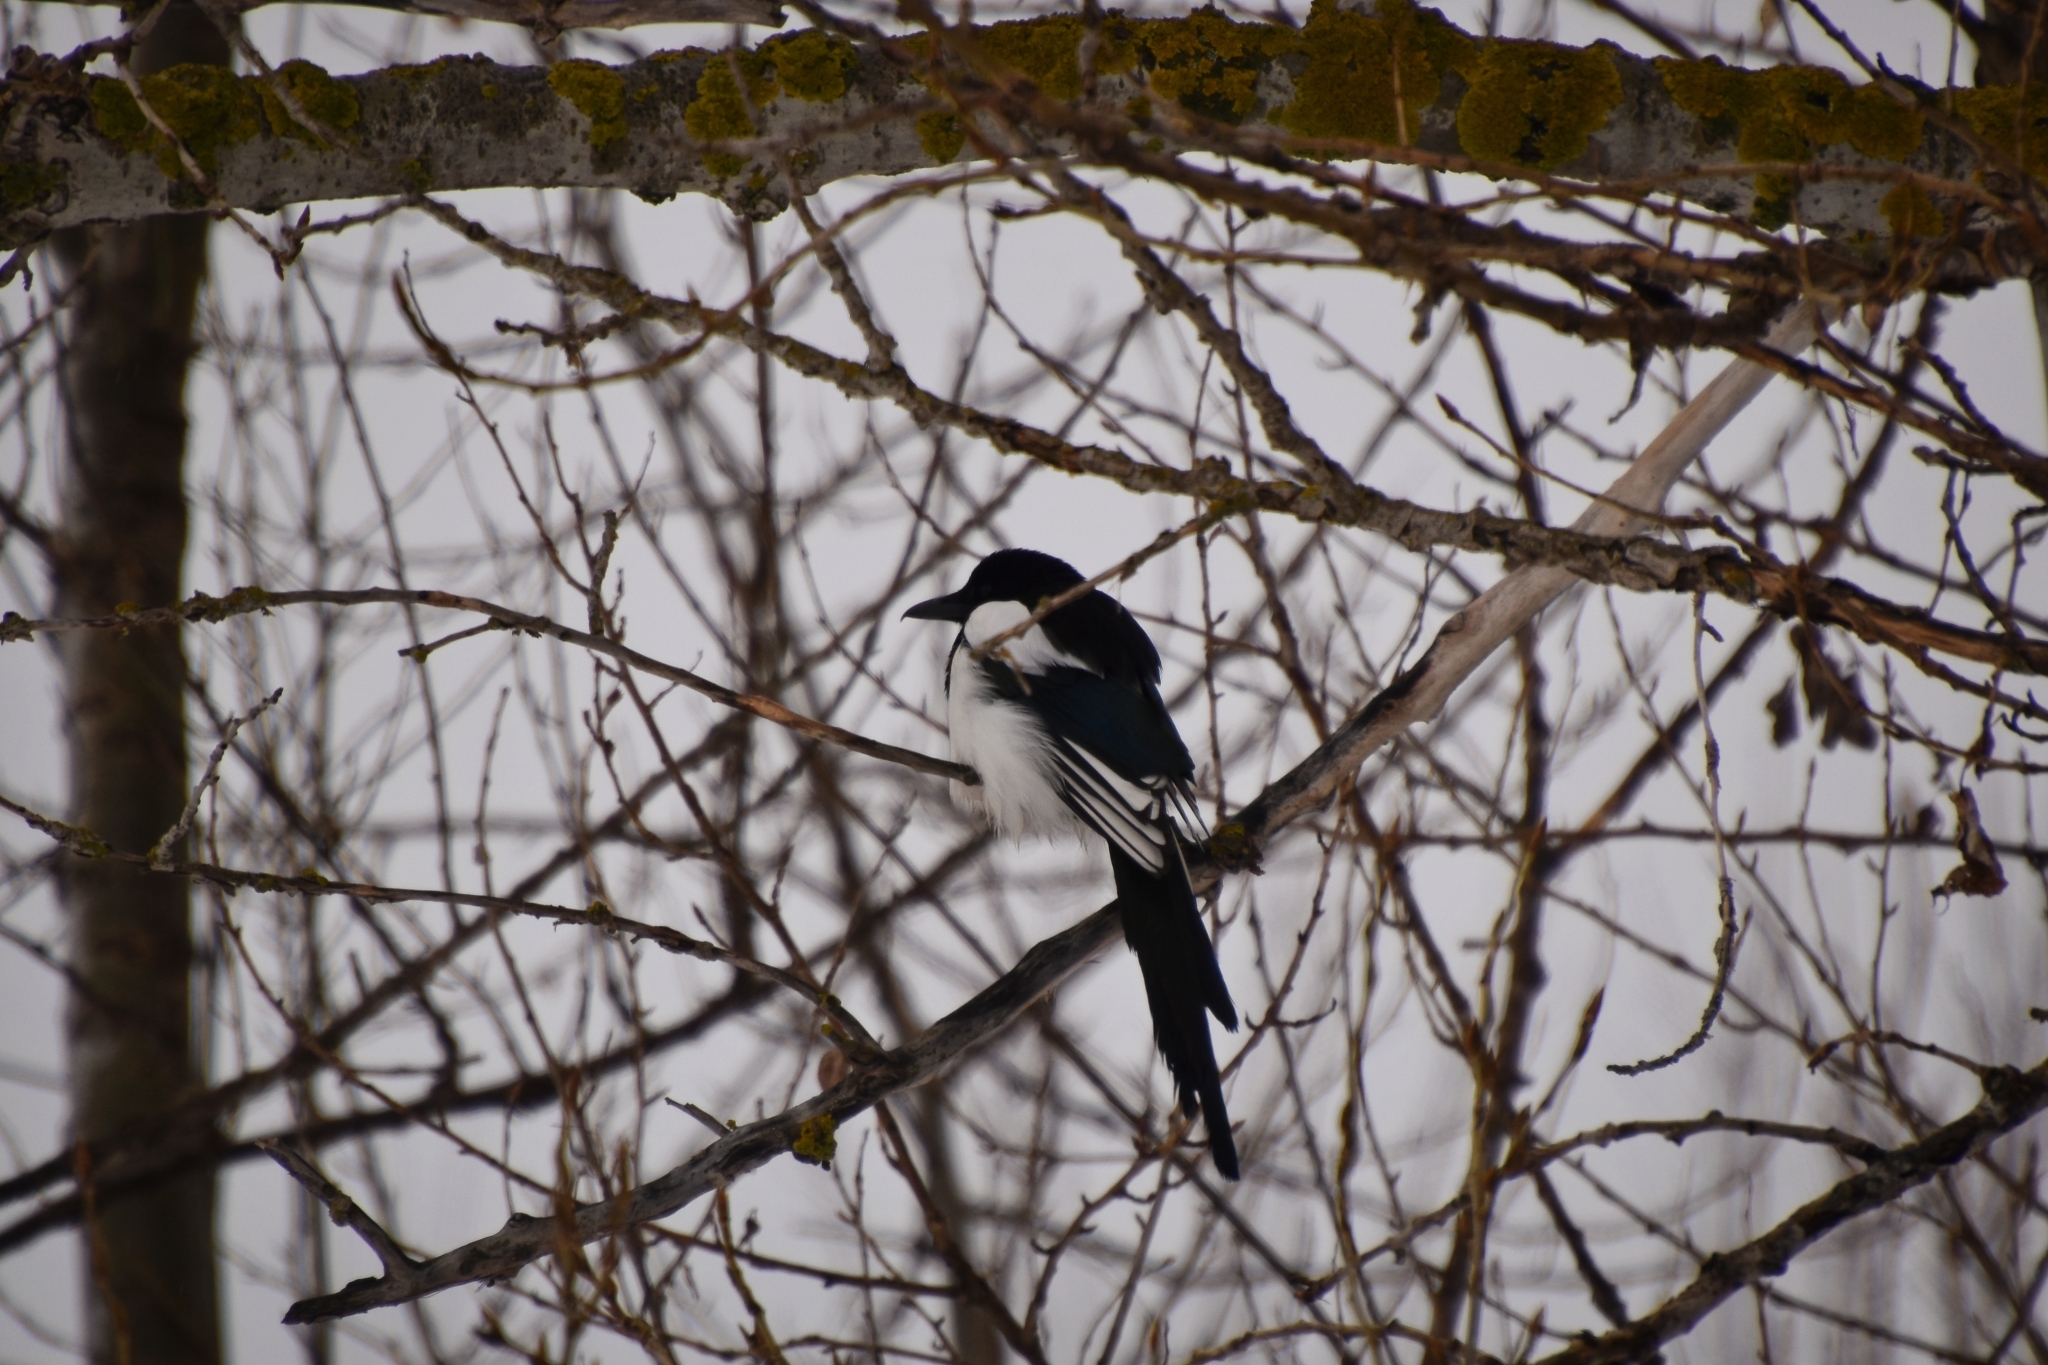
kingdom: Animalia
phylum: Chordata
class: Aves
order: Passeriformes
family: Corvidae
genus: Pica
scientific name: Pica pica
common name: Eurasian magpie
